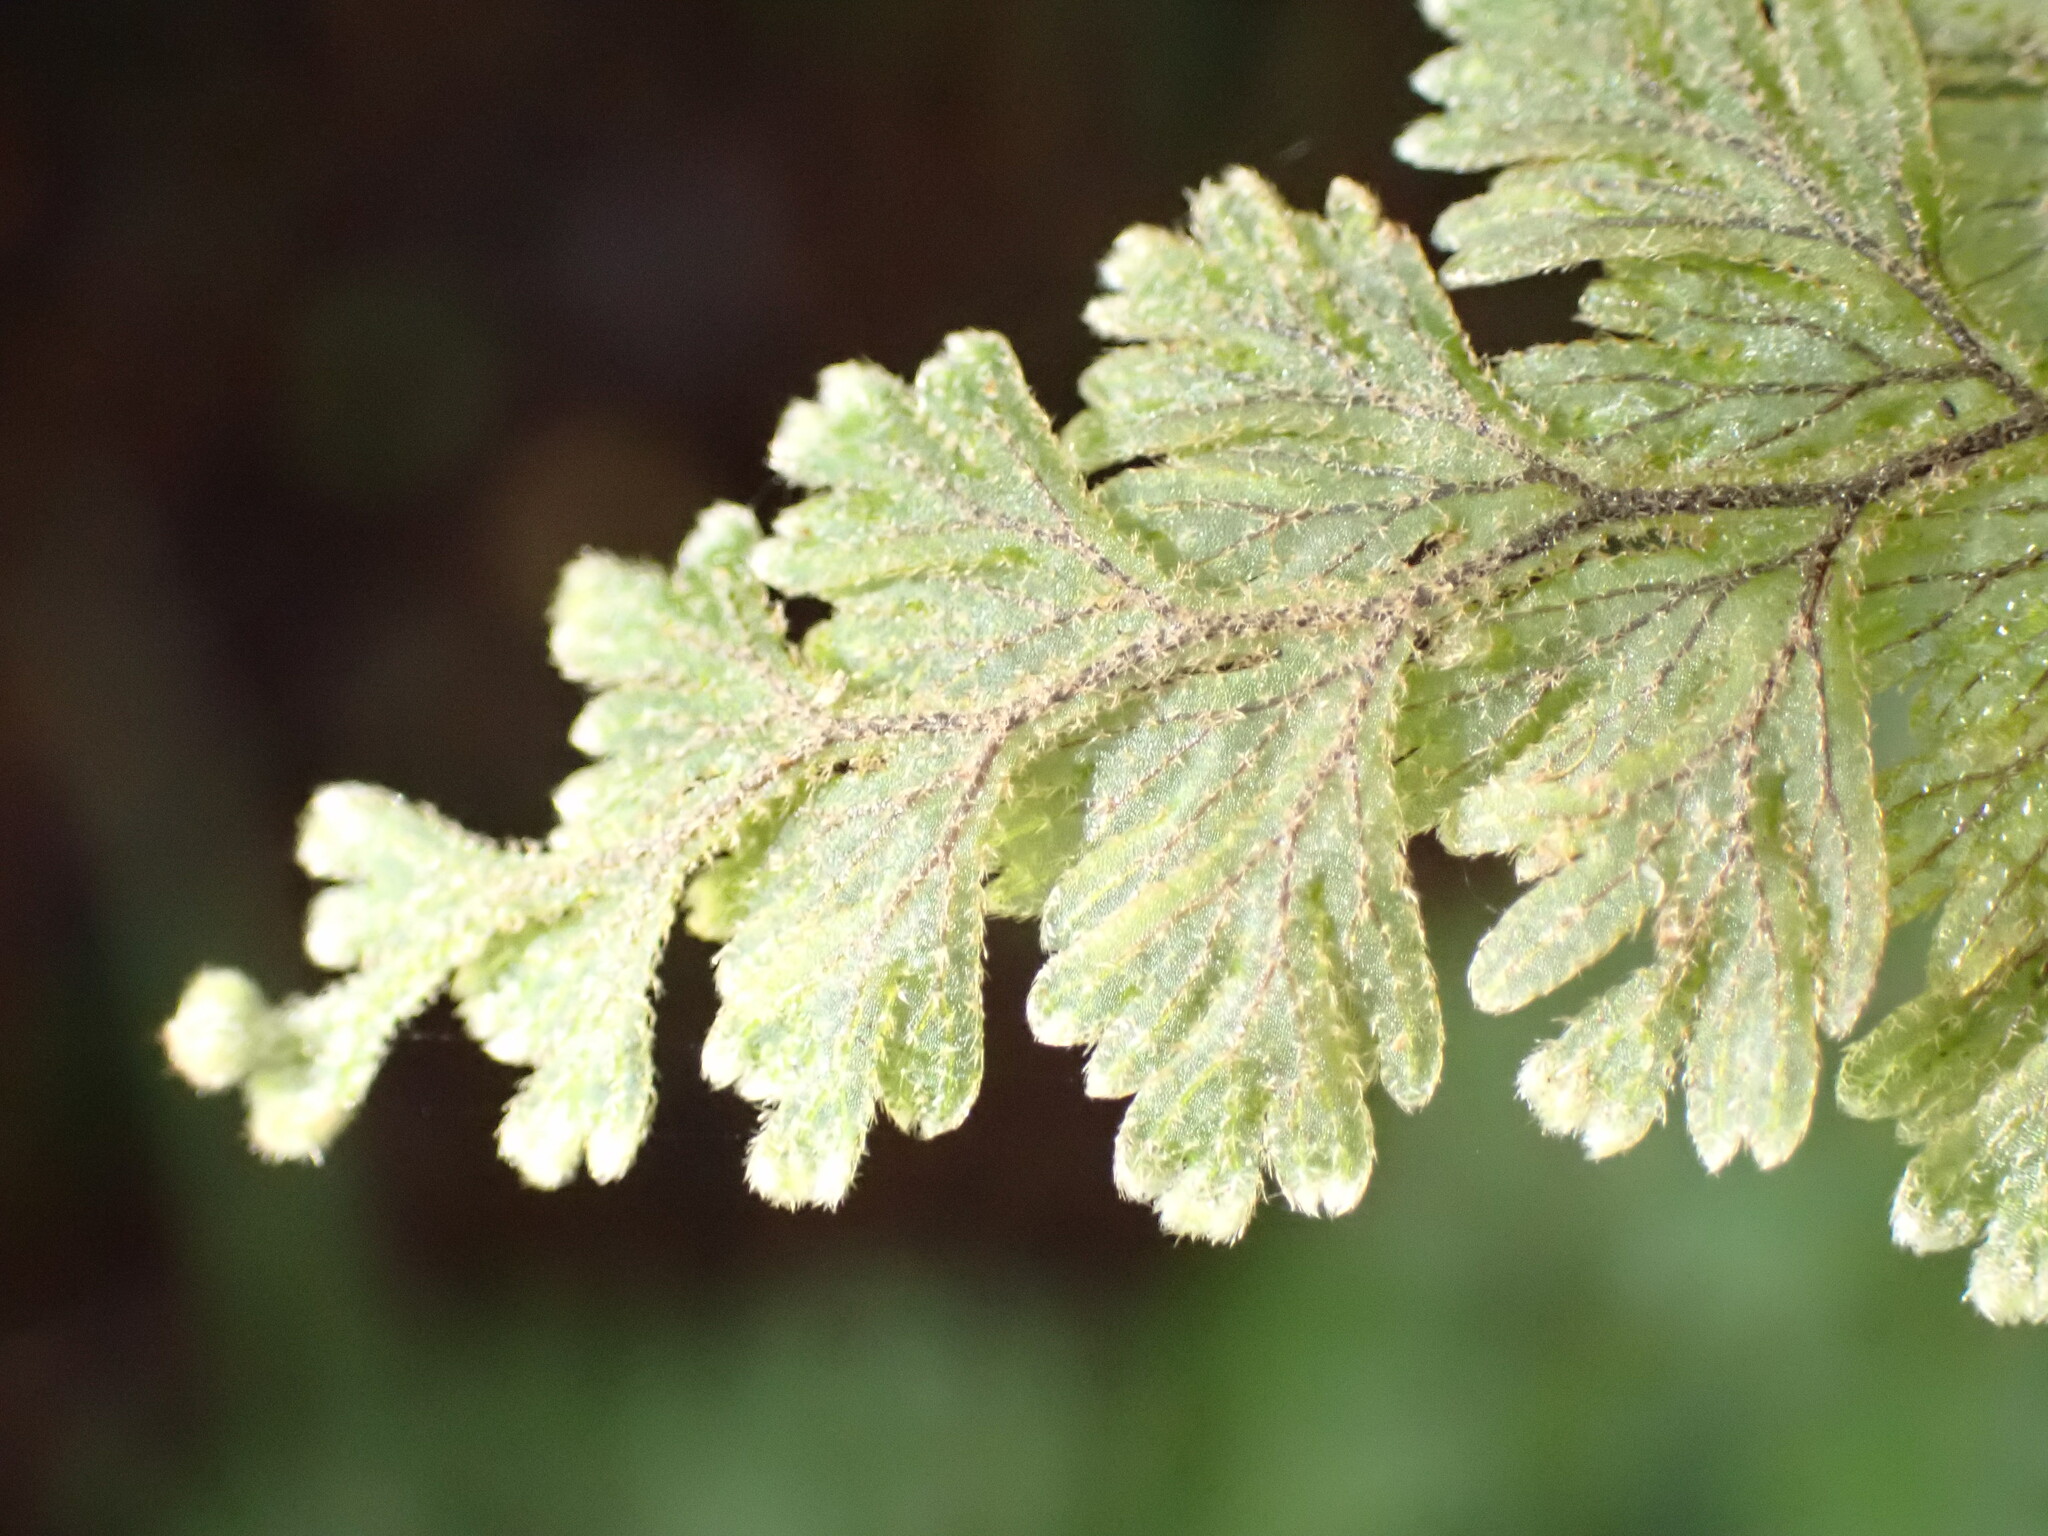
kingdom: Plantae
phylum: Tracheophyta
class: Polypodiopsida
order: Hymenophyllales
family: Hymenophyllaceae
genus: Hymenophyllum
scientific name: Hymenophyllum frankliniae
